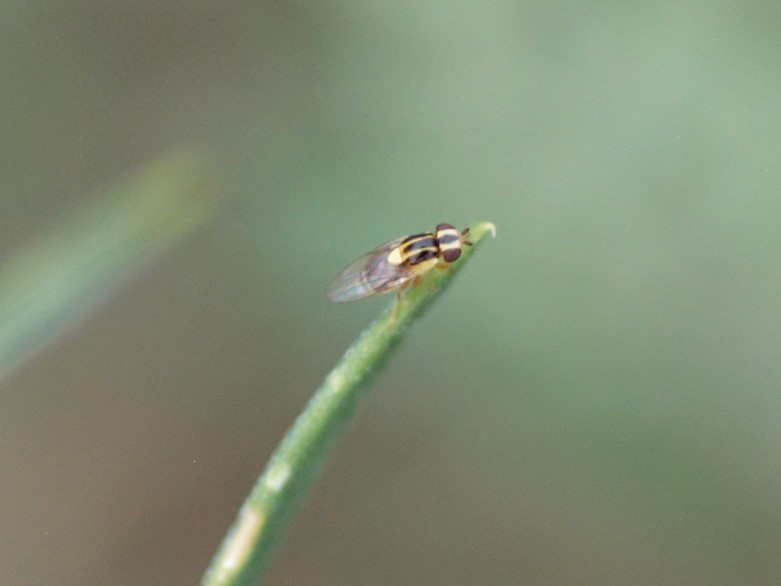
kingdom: Animalia
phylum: Arthropoda
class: Insecta
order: Diptera
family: Chloropidae
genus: Thaumatomyia
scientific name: Thaumatomyia glabra
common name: Chloropid fly
